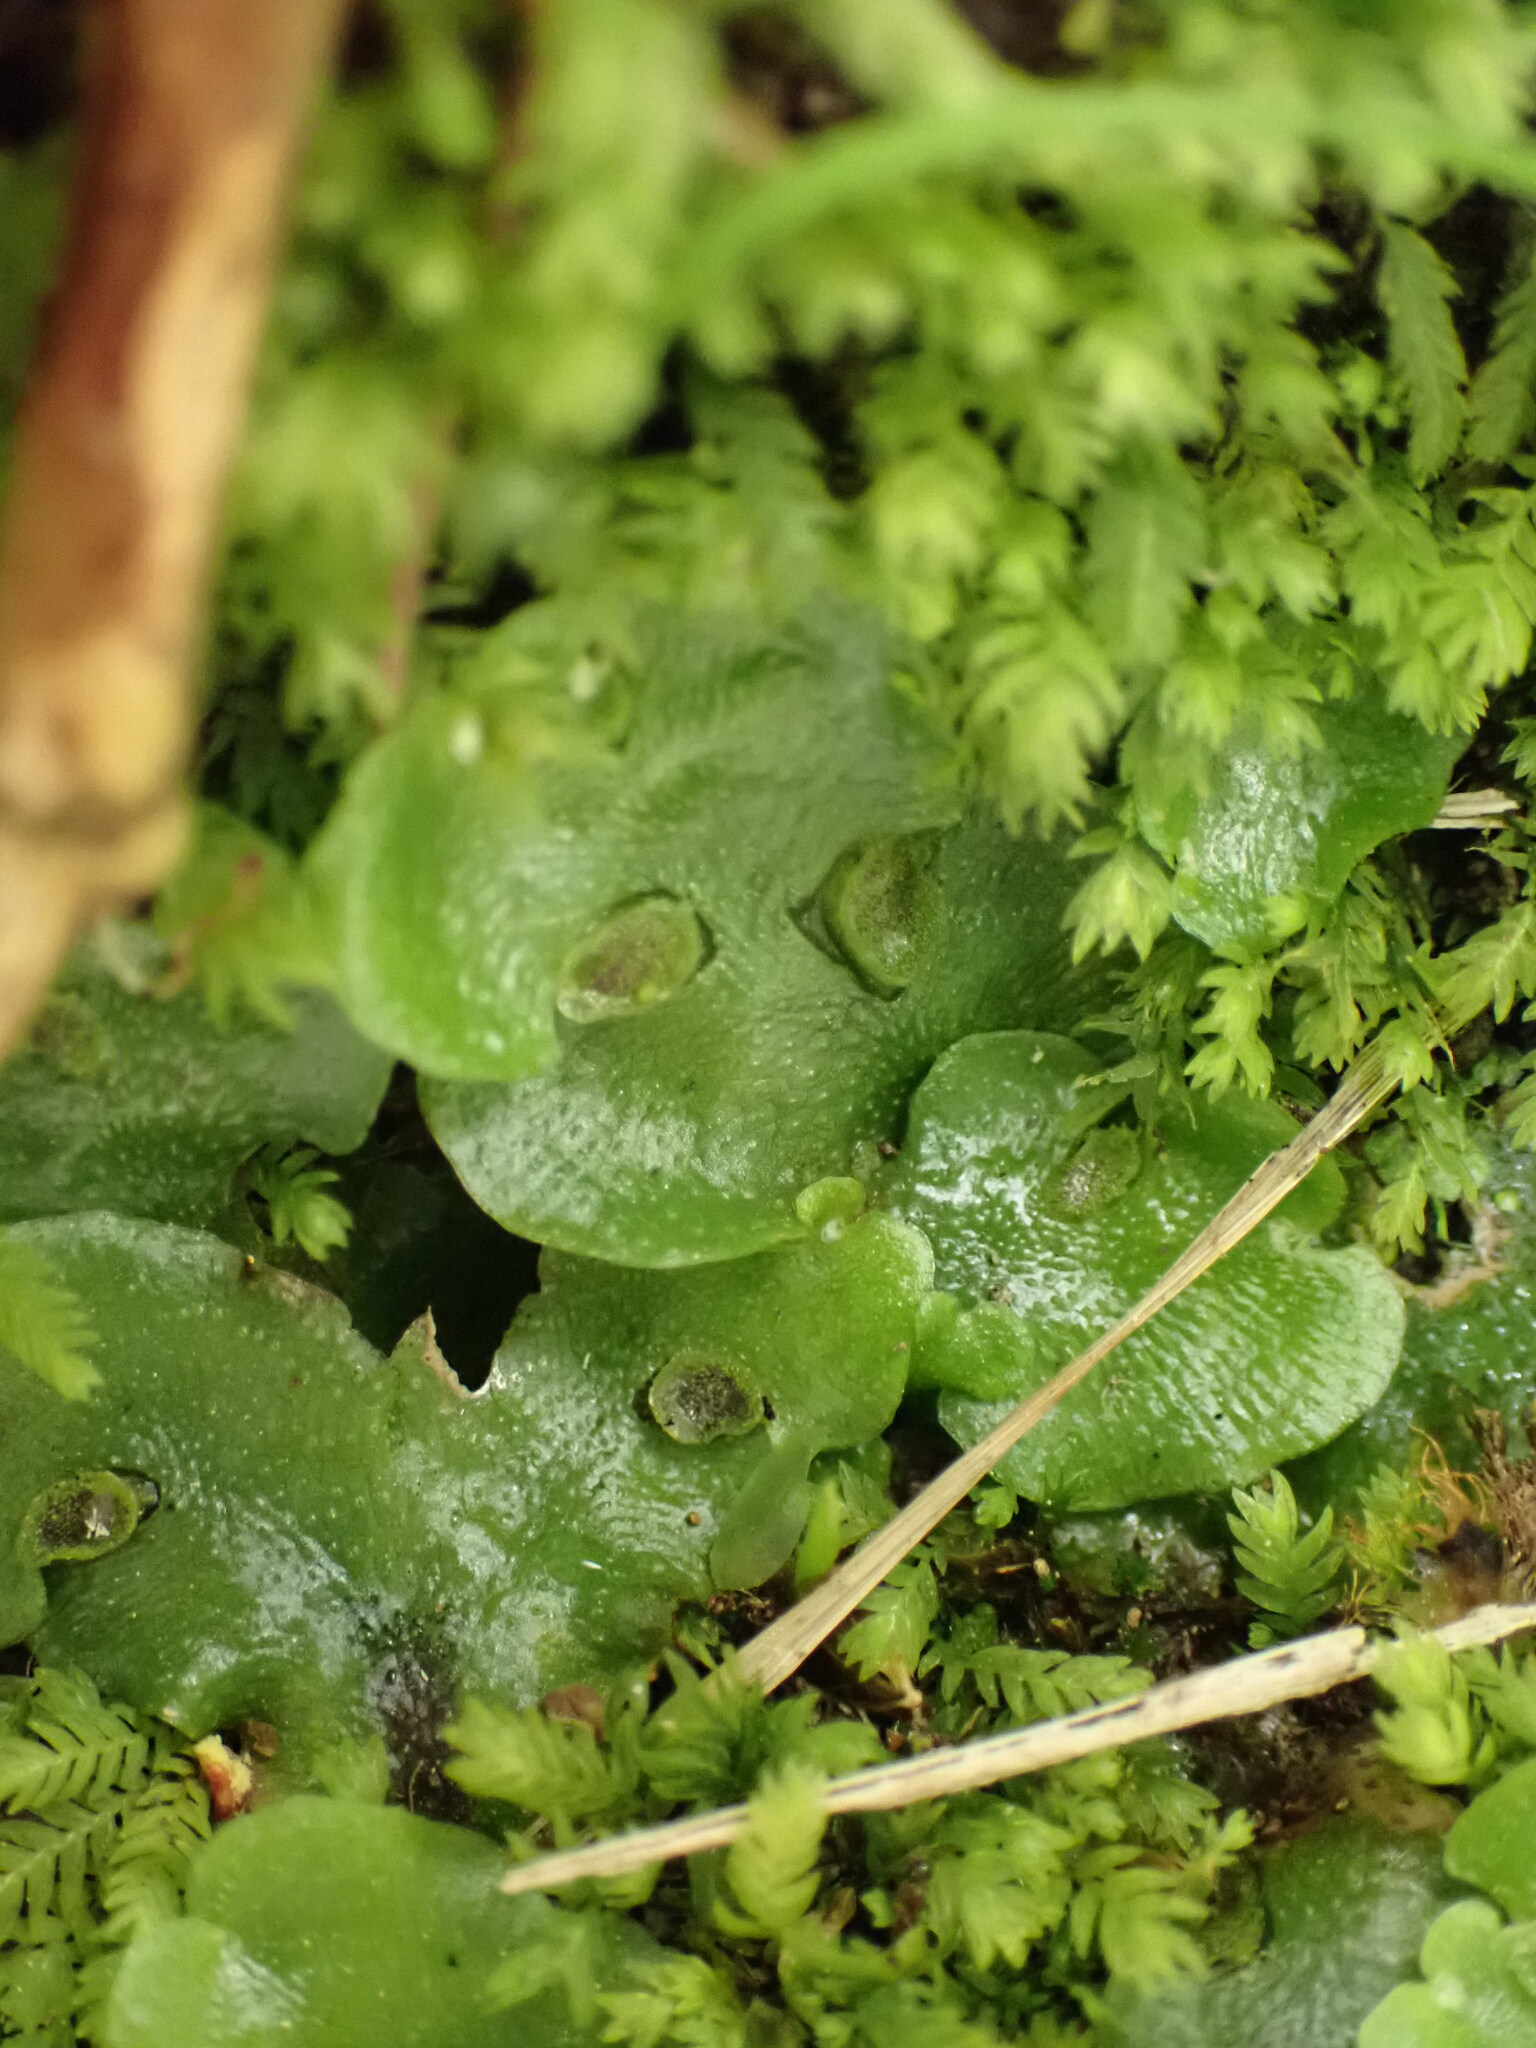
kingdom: Plantae
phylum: Marchantiophyta
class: Marchantiopsida
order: Lunulariales
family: Lunulariaceae
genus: Lunularia
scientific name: Lunularia cruciata
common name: Crescent-cup liverwort
